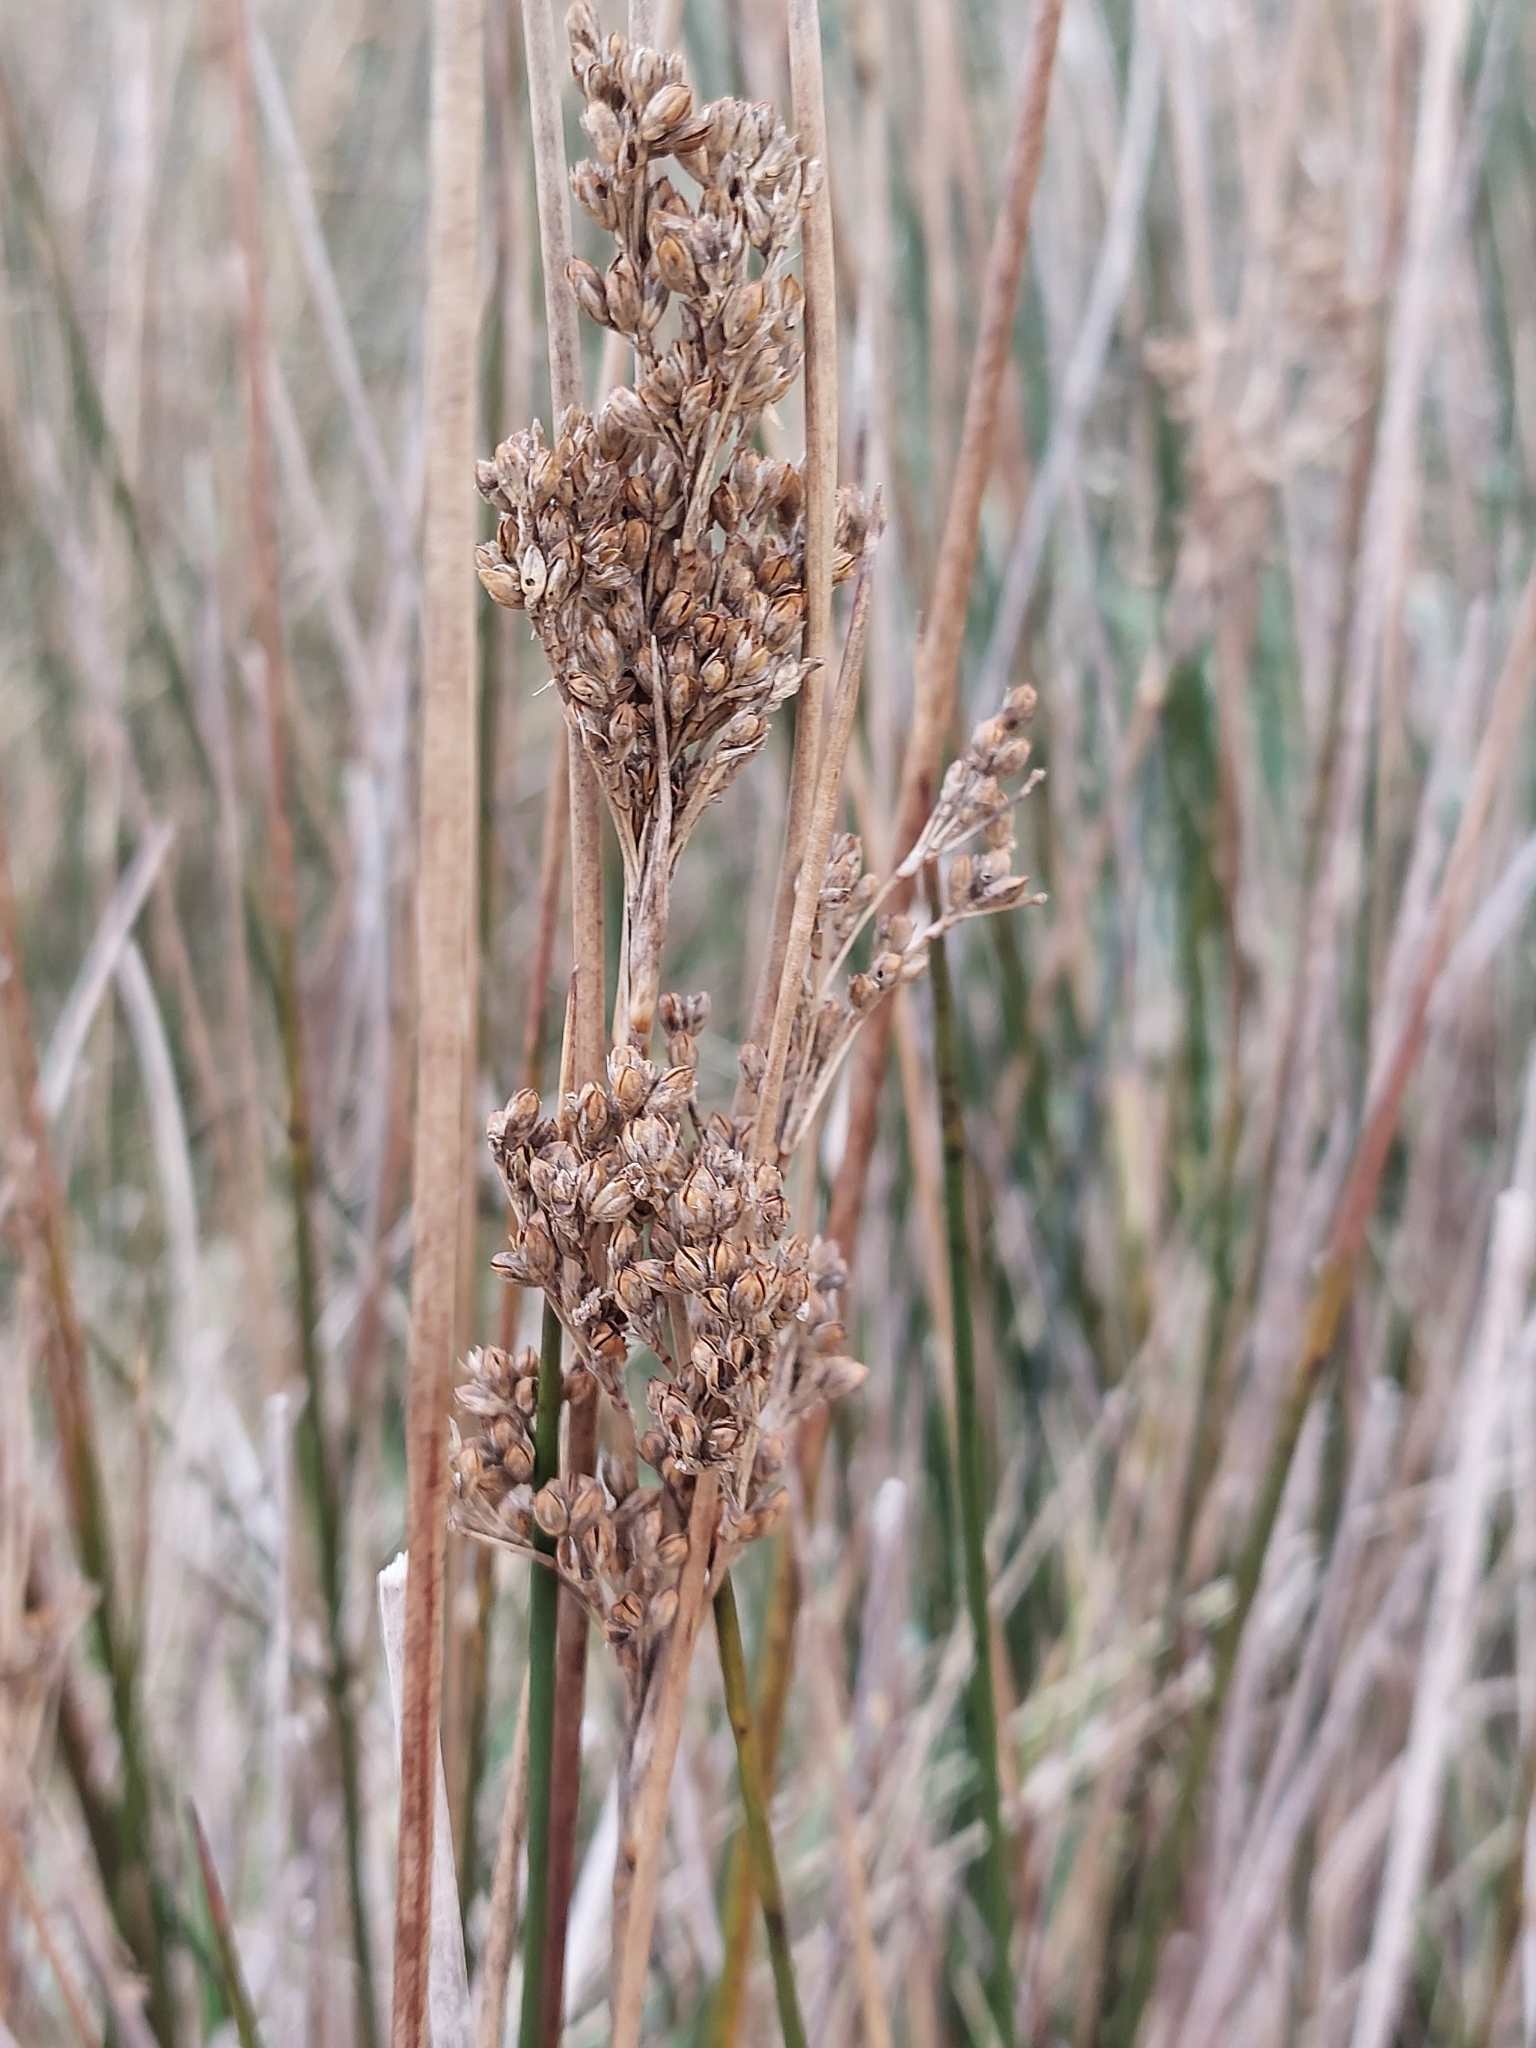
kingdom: Plantae
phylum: Tracheophyta
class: Liliopsida
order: Poales
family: Juncaceae
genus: Juncus
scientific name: Juncus maritimus
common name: Sea rush
